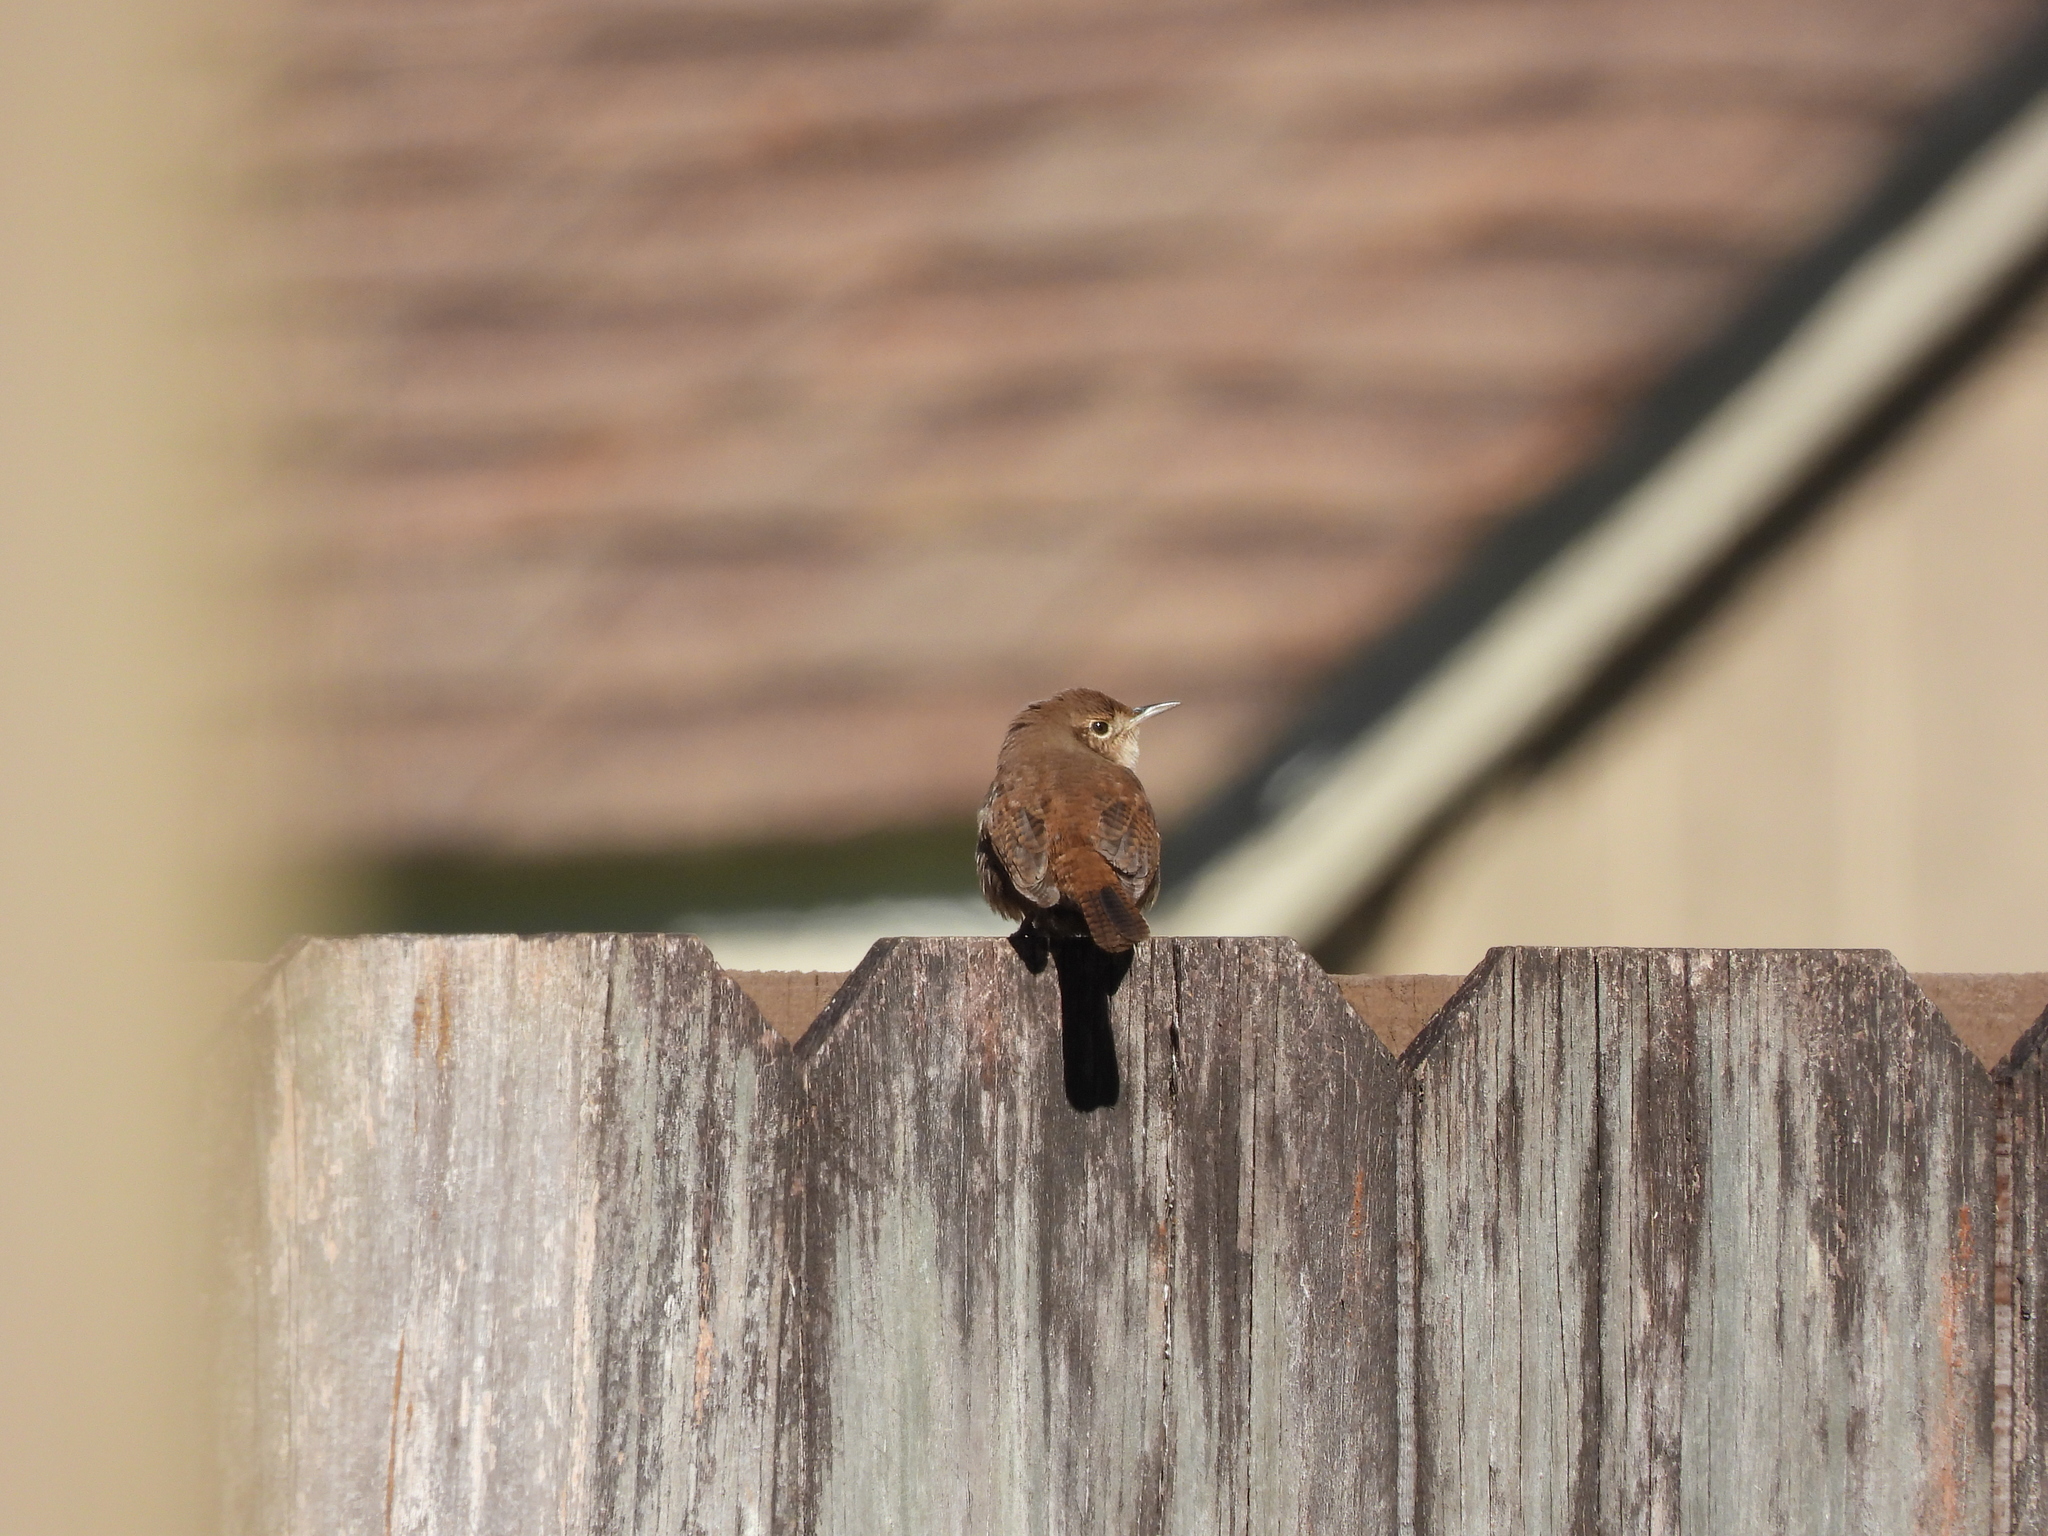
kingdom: Animalia
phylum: Chordata
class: Aves
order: Passeriformes
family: Troglodytidae
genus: Troglodytes
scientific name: Troglodytes aedon
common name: House wren
